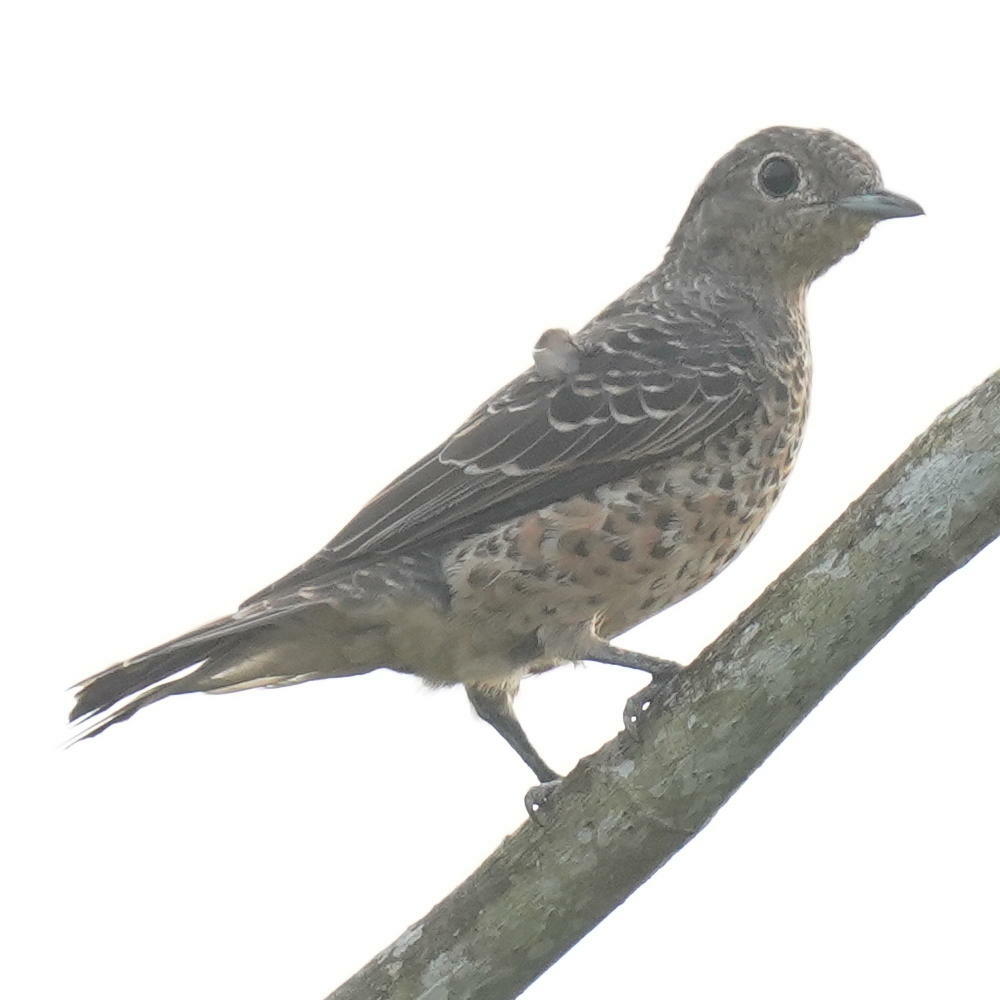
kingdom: Animalia
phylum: Chordata
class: Aves
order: Passeriformes
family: Cotingidae
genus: Cotinga
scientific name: Cotinga nattererii
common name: Blue cotinga
